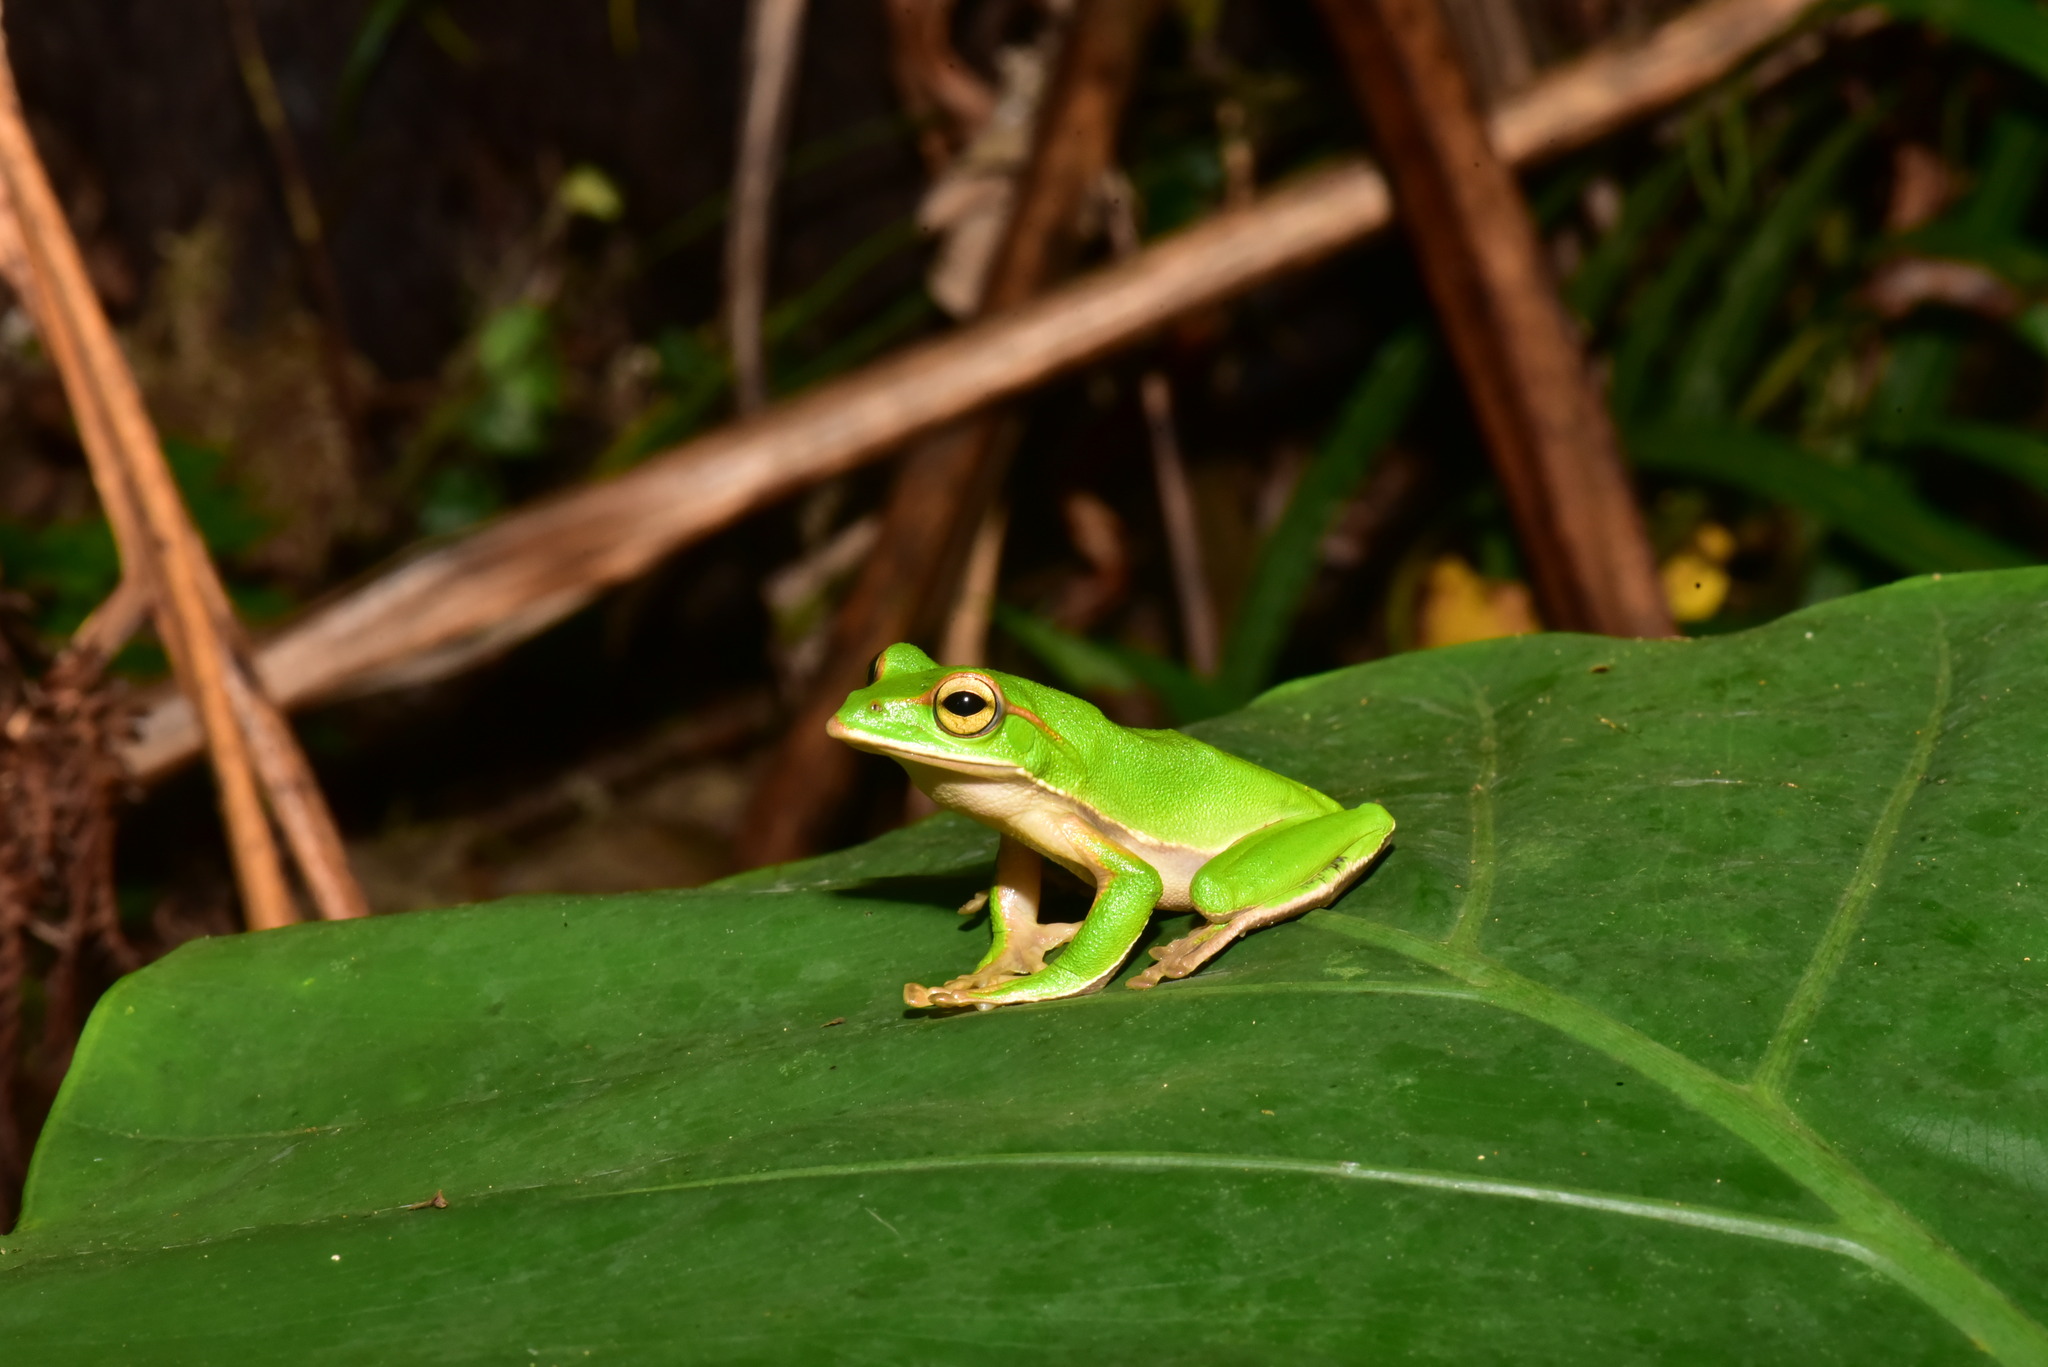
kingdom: Animalia
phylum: Chordata
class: Amphibia
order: Anura
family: Rhacophoridae
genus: Zhangixalus
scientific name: Zhangixalus prasinatus
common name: Tributary flying frog
